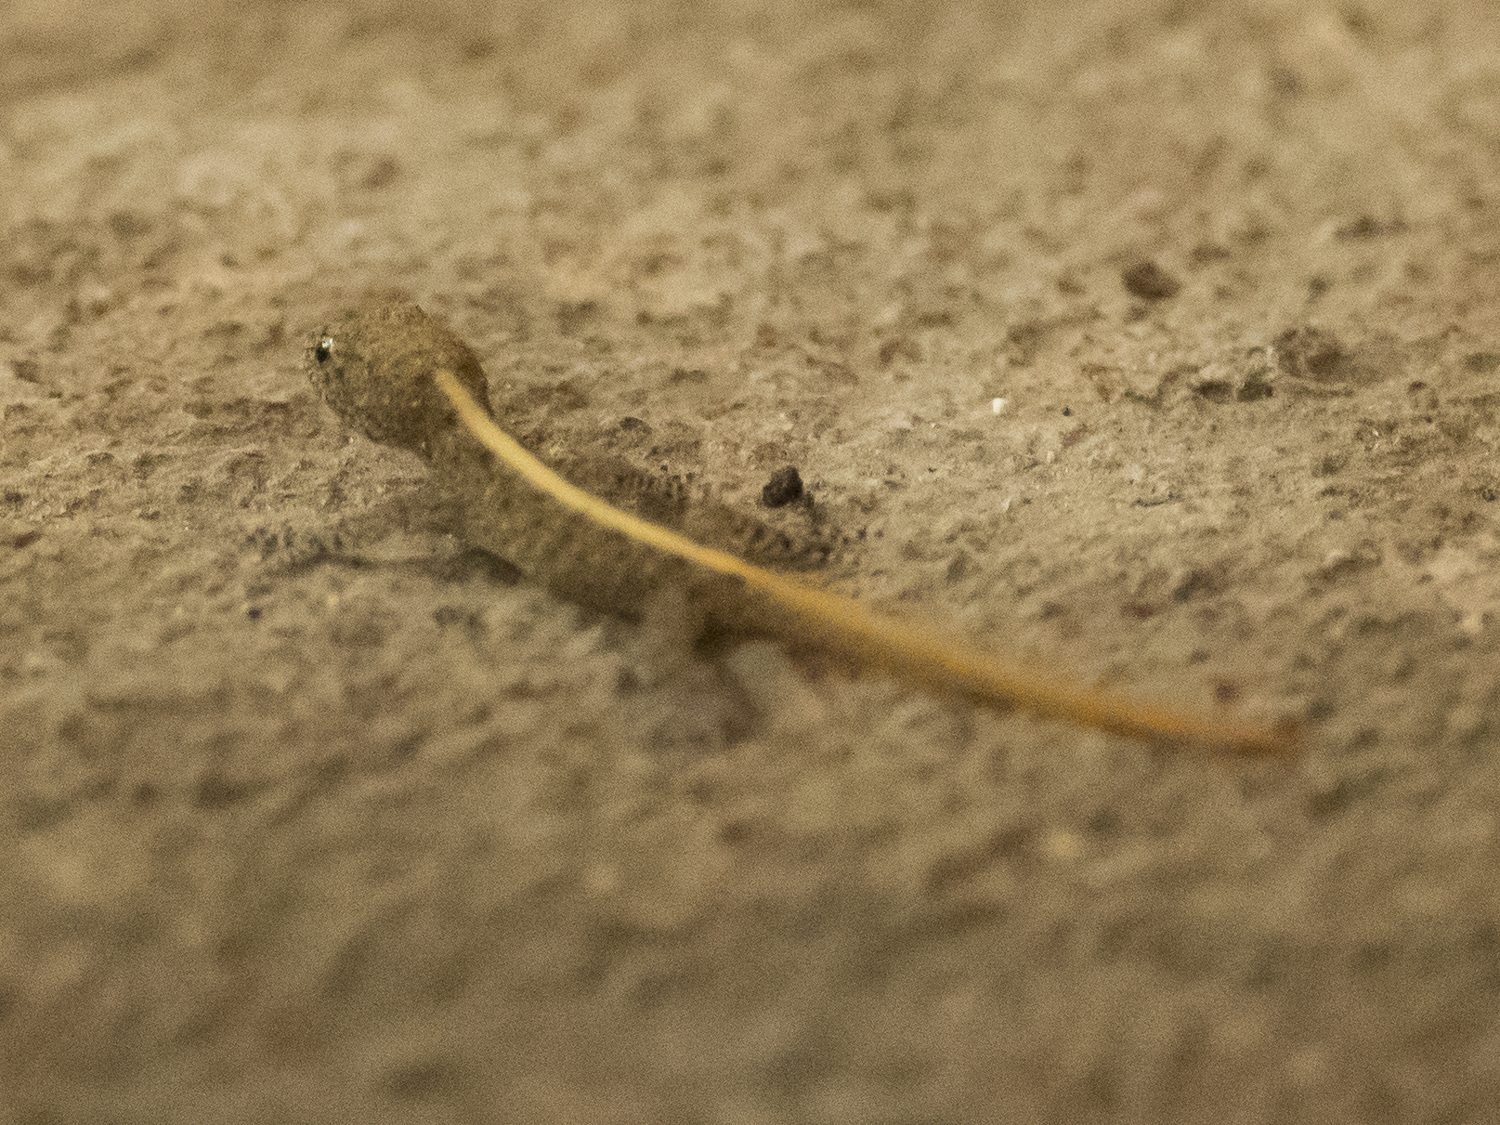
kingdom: Animalia
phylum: Chordata
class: Squamata
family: Gekkonidae
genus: Cnemaspis
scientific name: Cnemaspis mysoriensis
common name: Mysore day gecko
